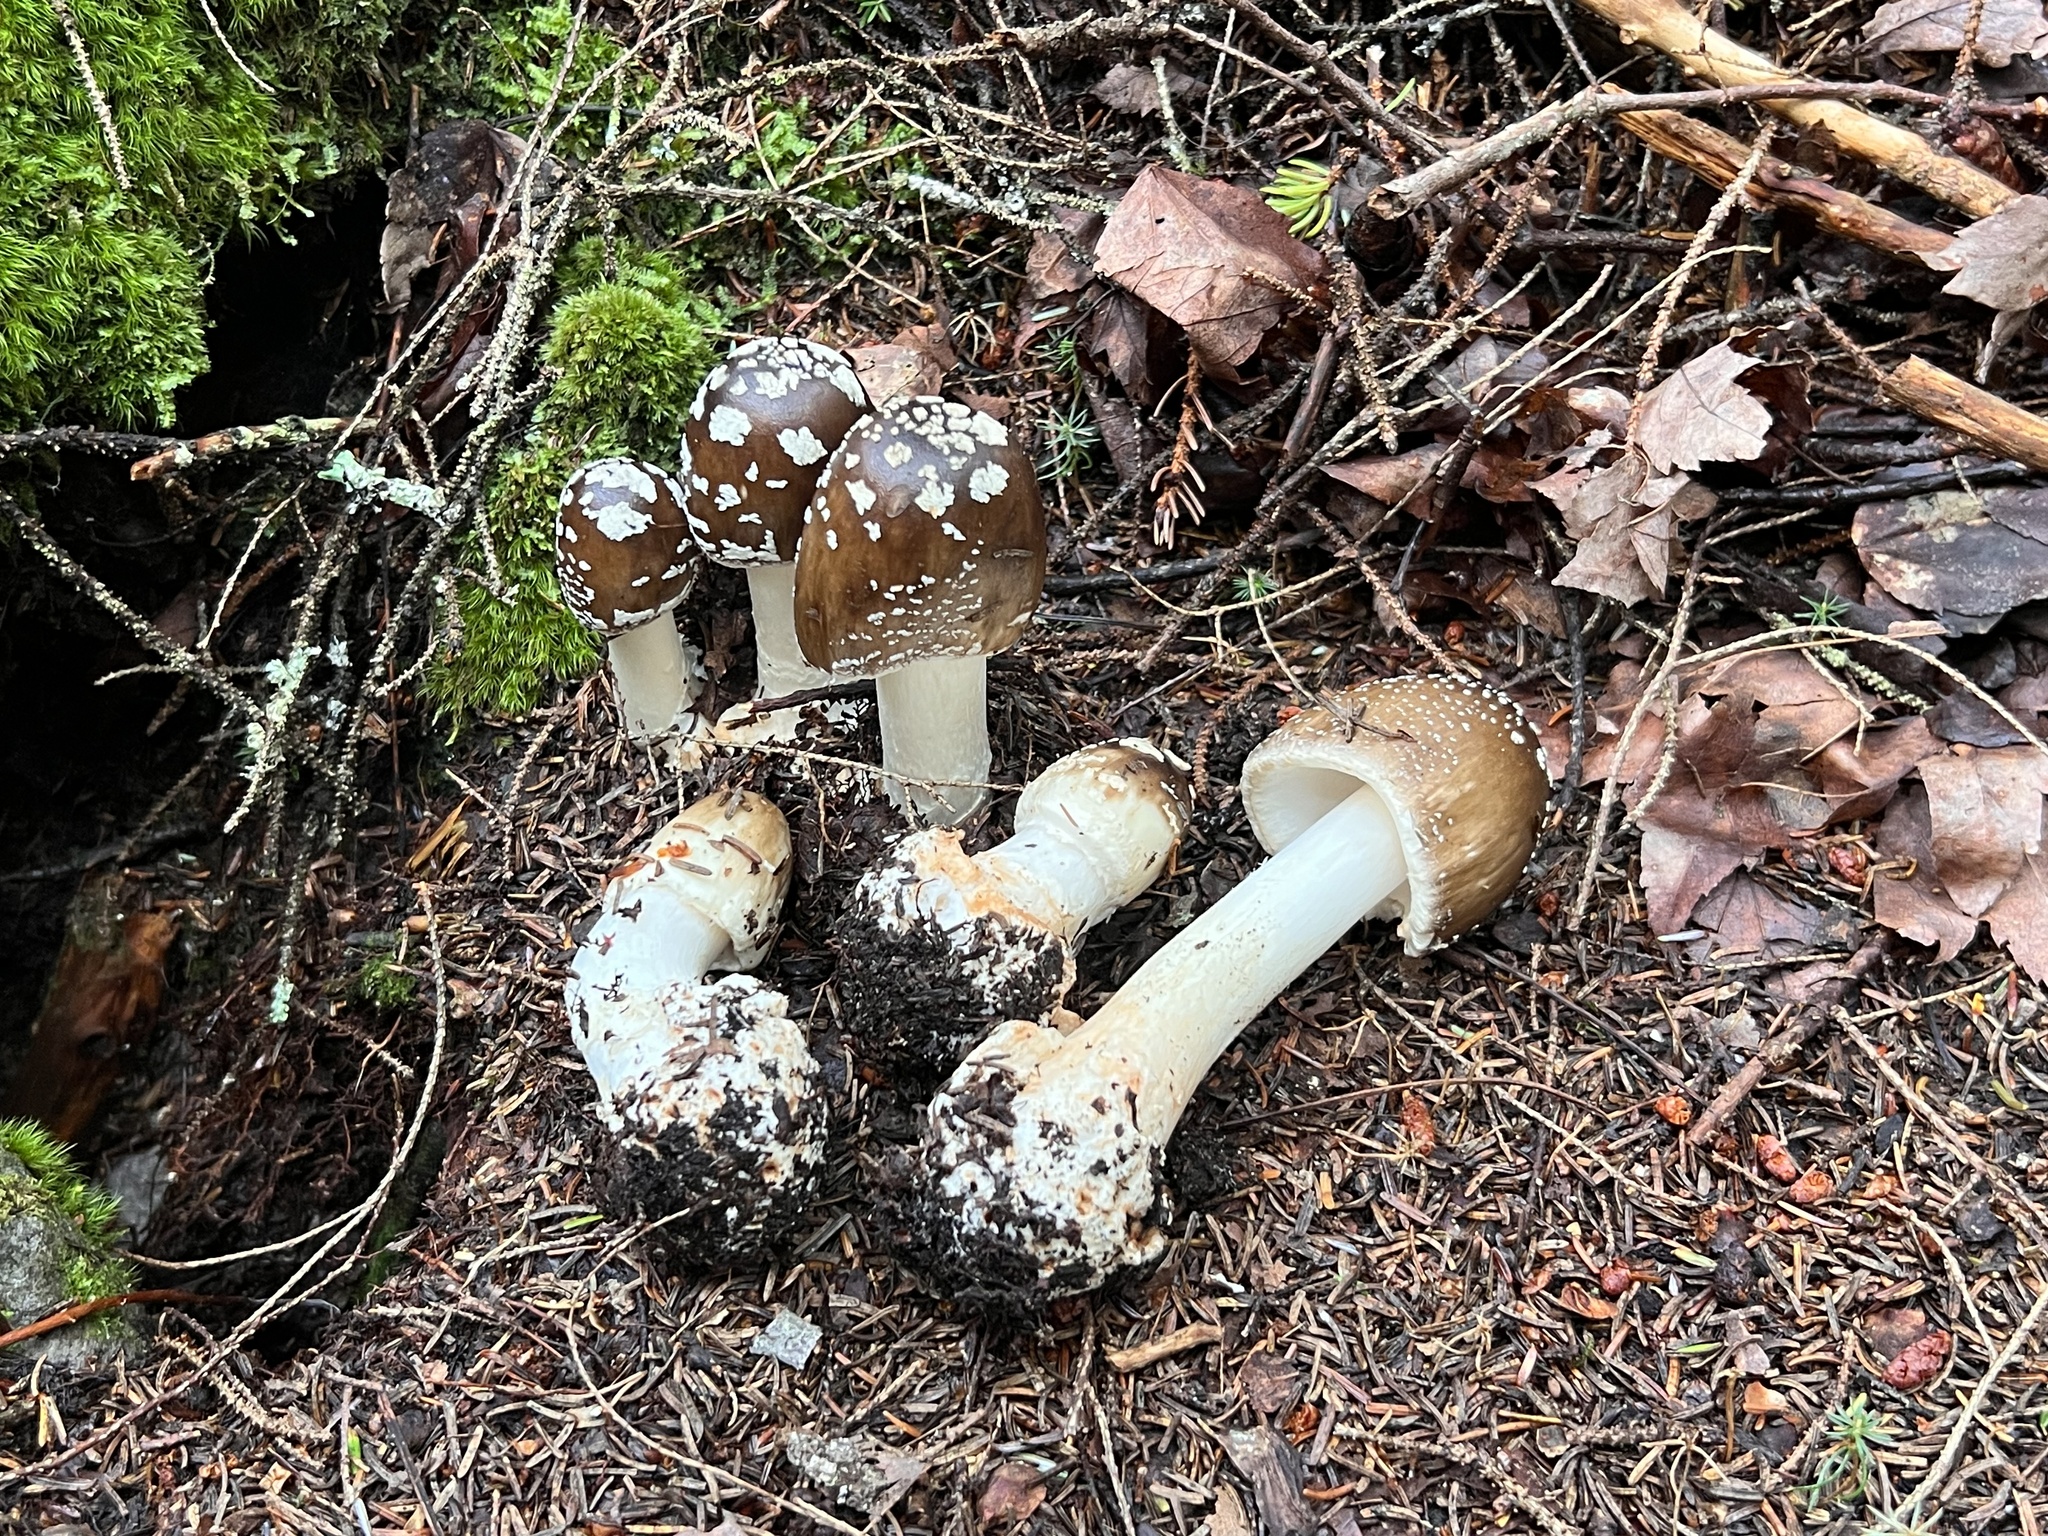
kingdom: Fungi
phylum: Basidiomycota
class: Agaricomycetes
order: Agaricales
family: Amanitaceae
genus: Amanita
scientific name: Amanita brunnescens
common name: Brown american star-footed amanita
